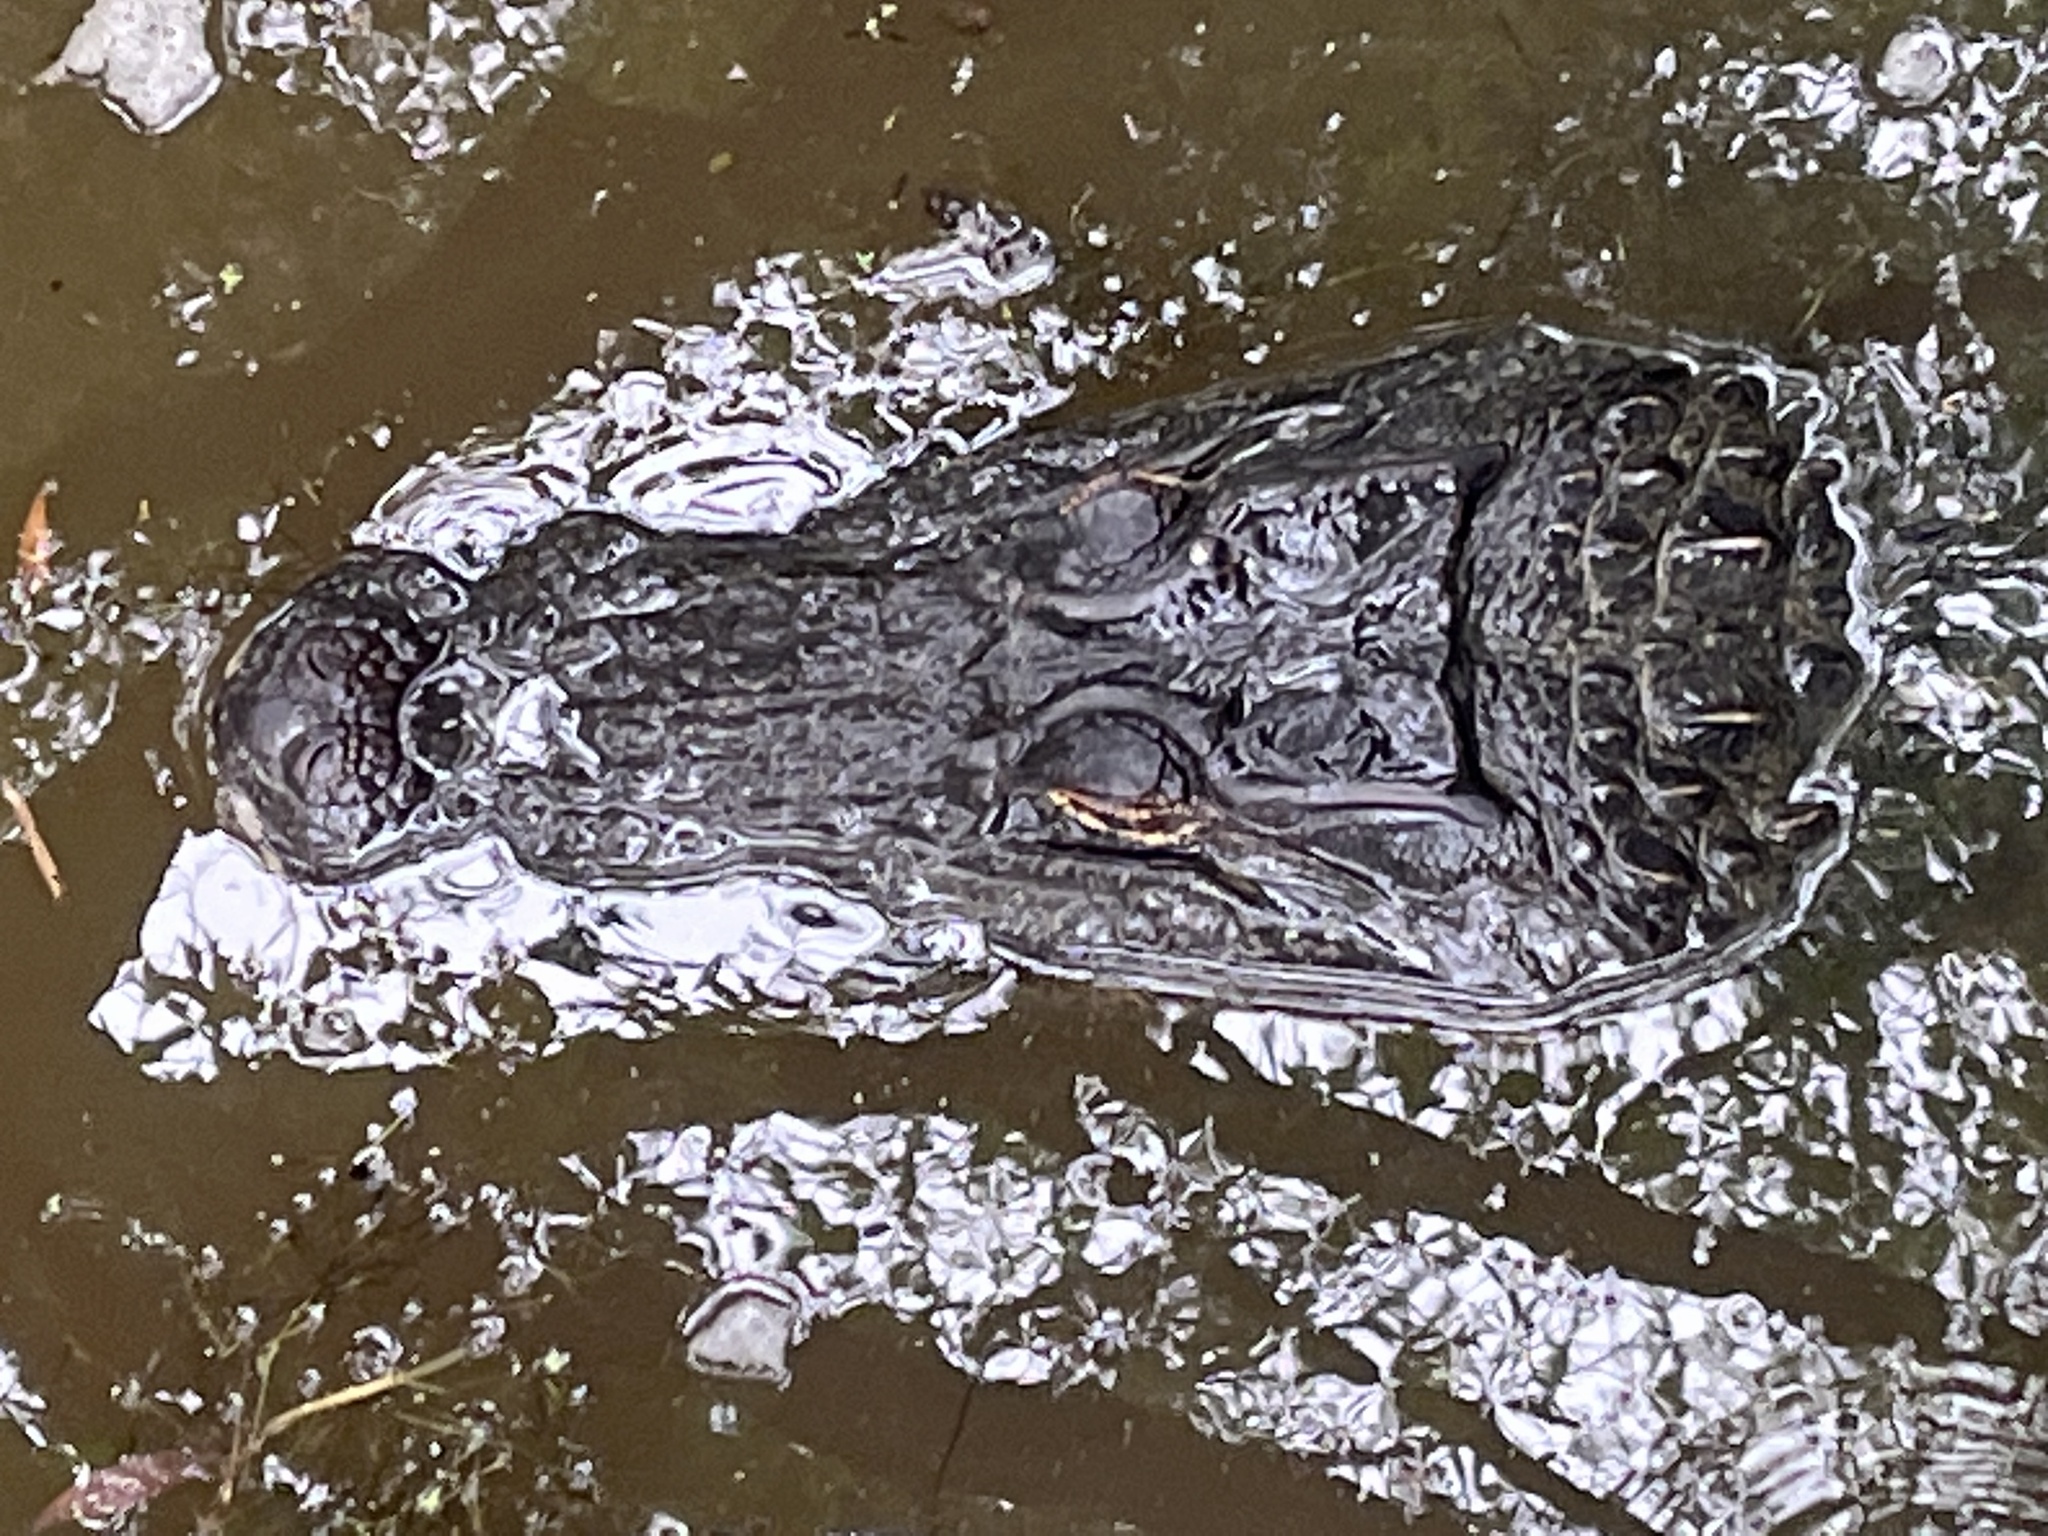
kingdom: Animalia
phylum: Chordata
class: Crocodylia
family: Alligatoridae
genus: Alligator
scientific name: Alligator mississippiensis
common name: American alligator
